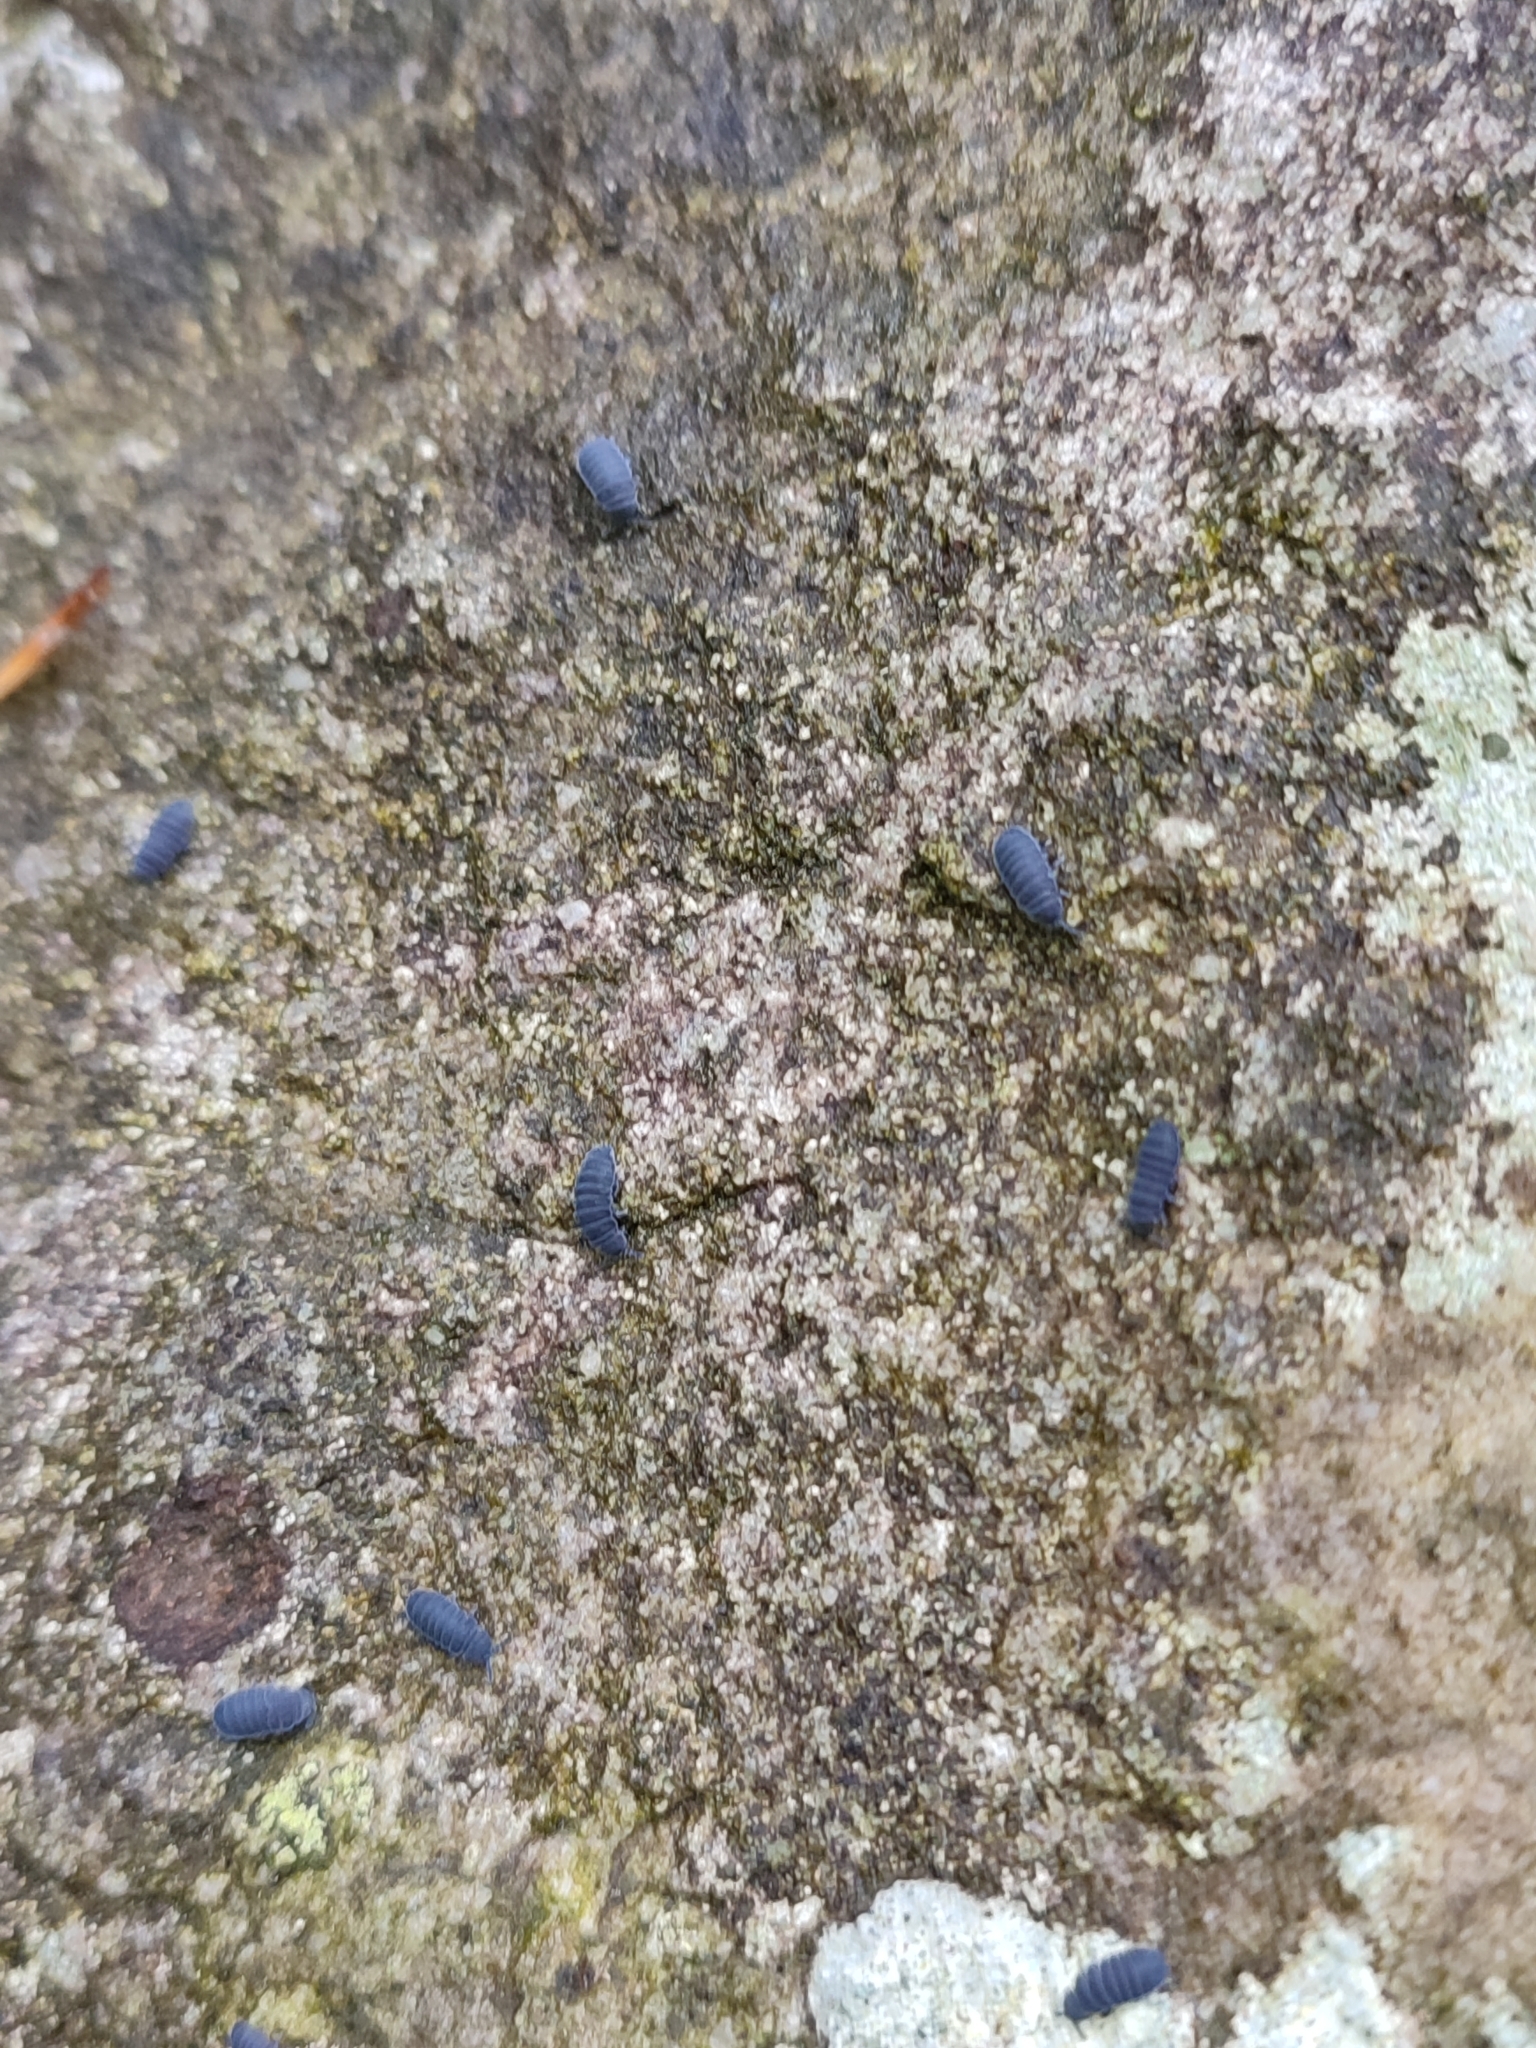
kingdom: Animalia
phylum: Arthropoda
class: Collembola
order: Poduromorpha
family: Onychiuridae
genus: Tetrodontophora
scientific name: Tetrodontophora bielanensis
